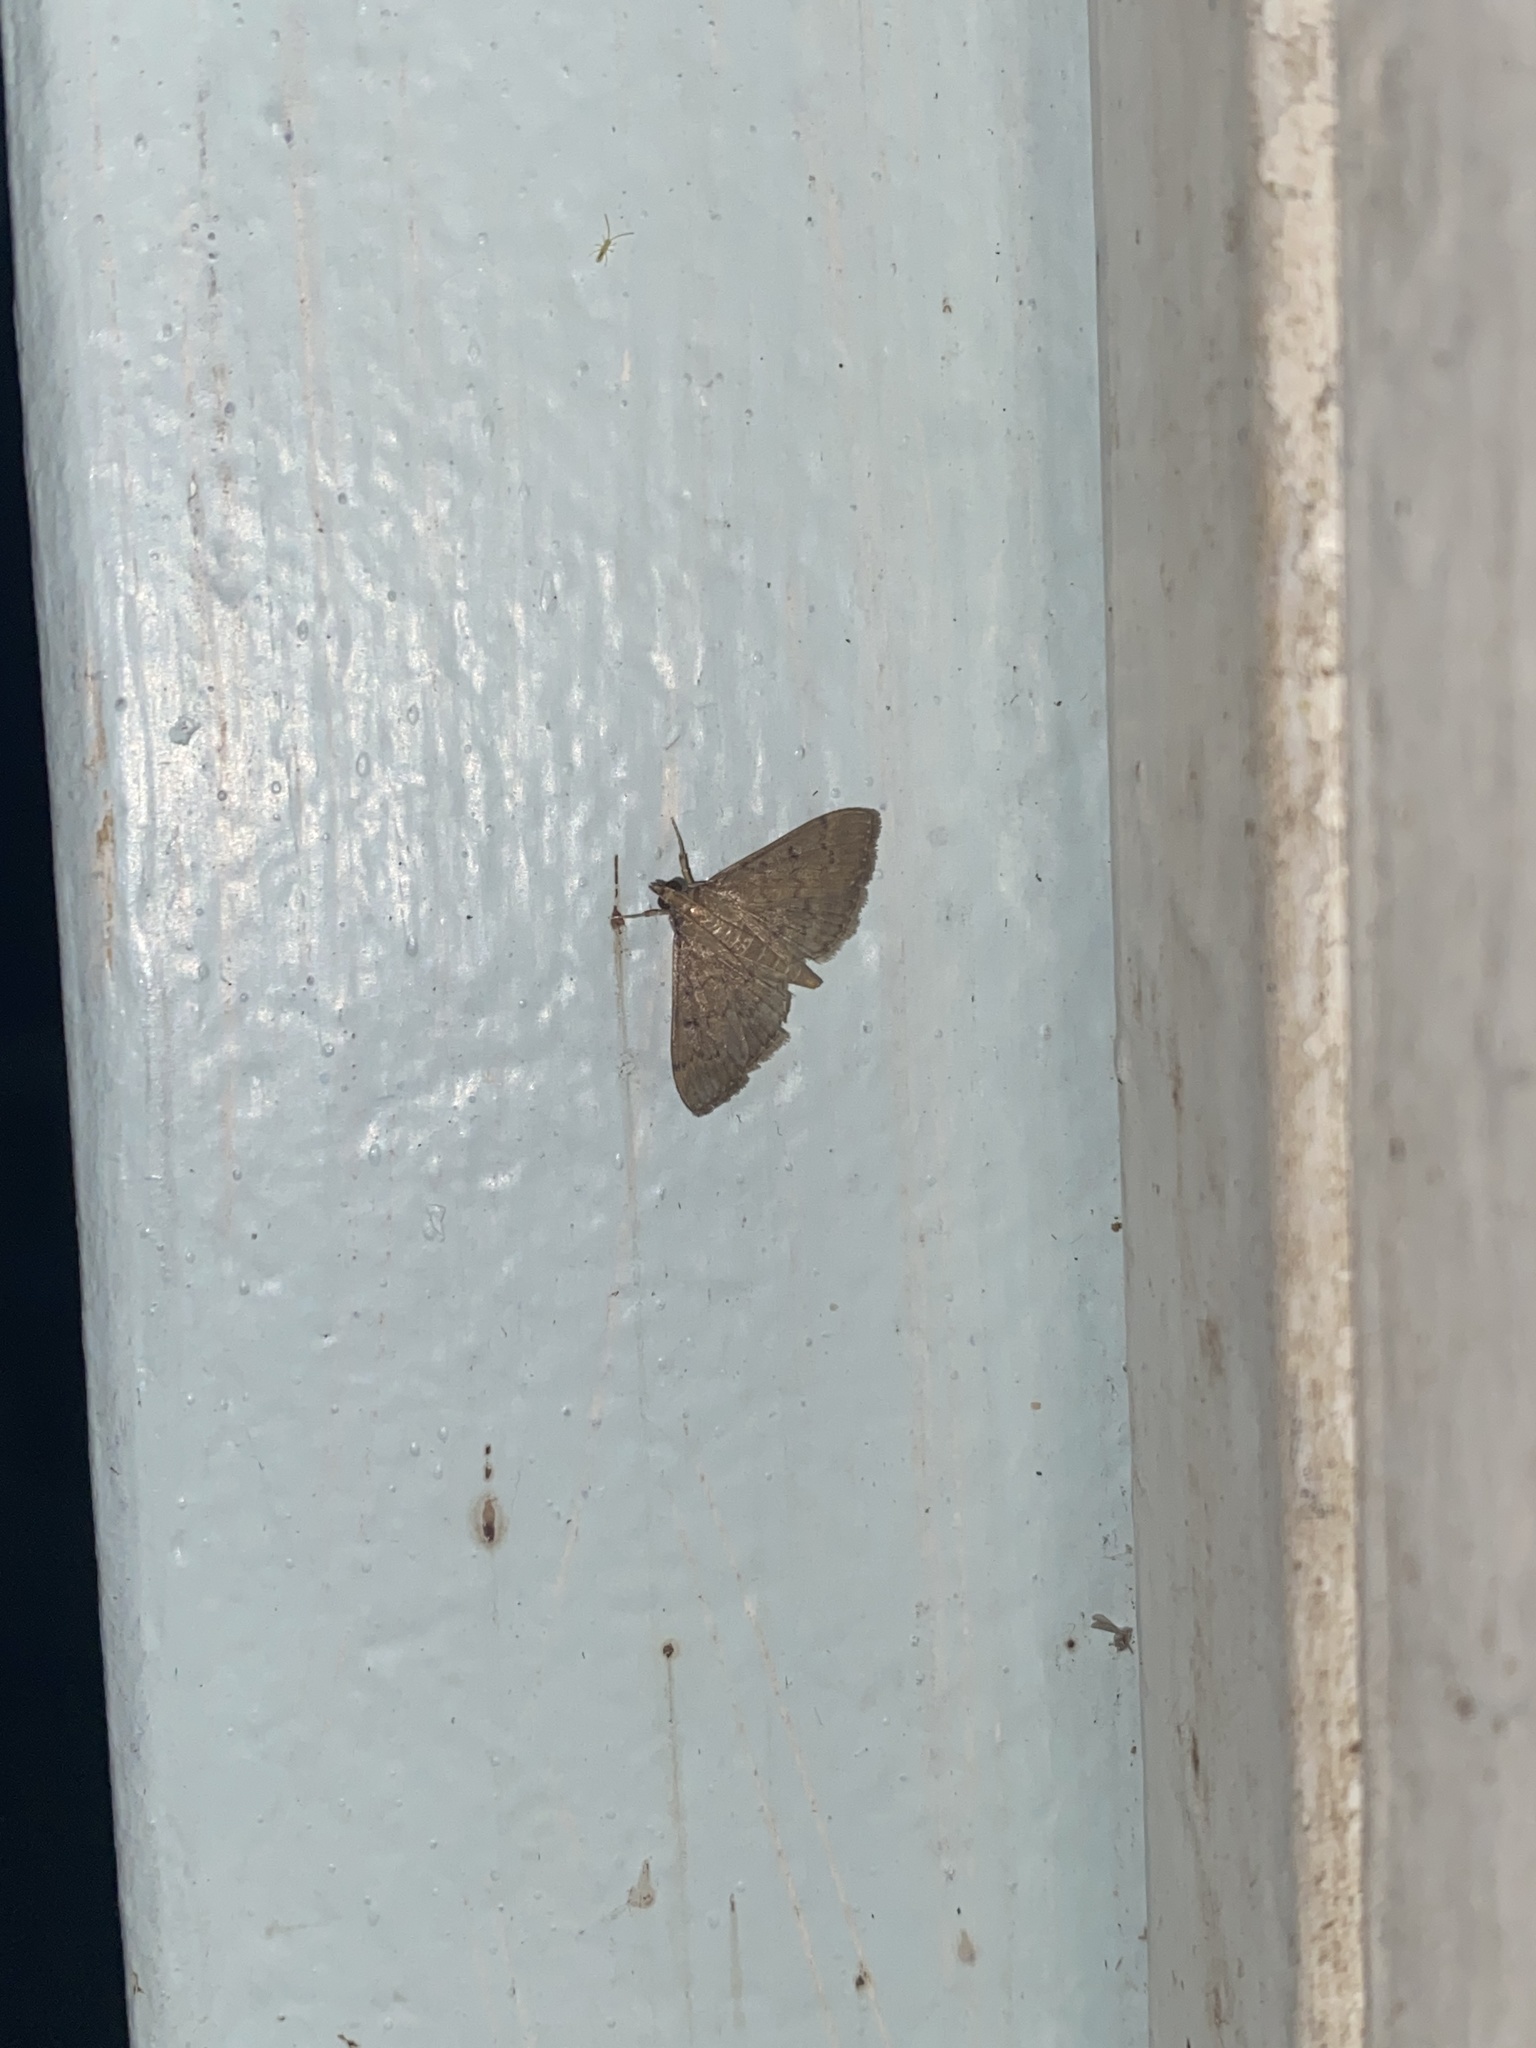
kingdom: Animalia
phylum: Arthropoda
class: Insecta
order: Lepidoptera
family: Crambidae
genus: Herpetogramma
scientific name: Herpetogramma phaeopteralis
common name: Dusky herpetogramma moth
